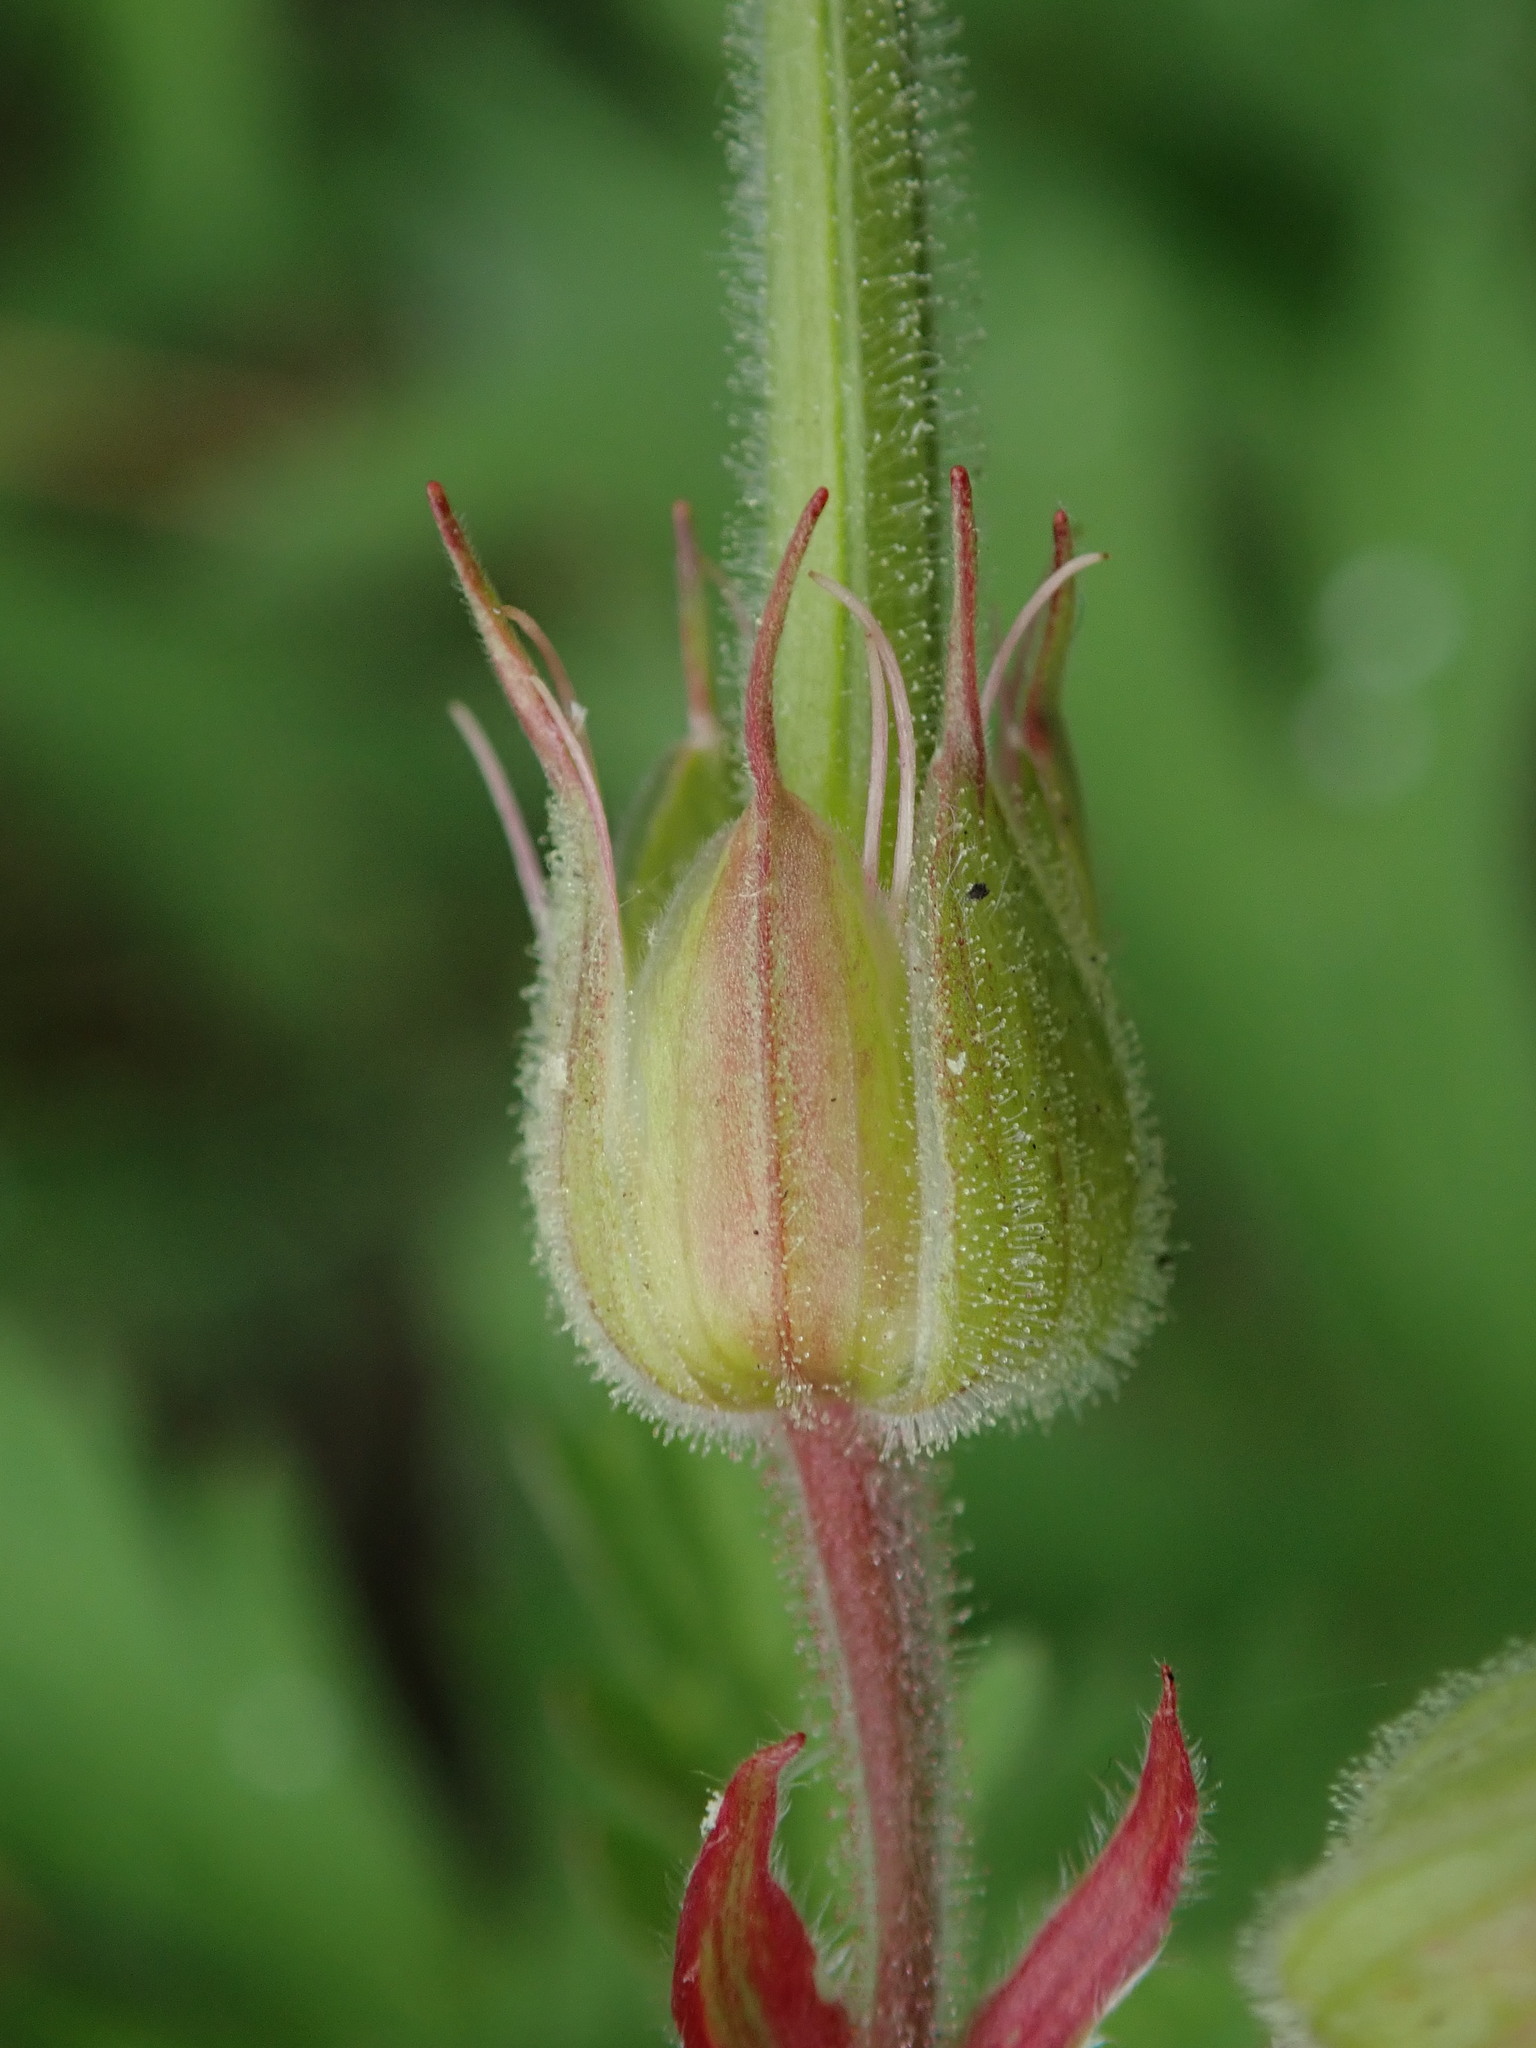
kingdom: Plantae
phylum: Tracheophyta
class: Magnoliopsida
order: Geraniales
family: Geraniaceae
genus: Geranium
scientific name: Geranium pratense
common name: Meadow crane's-bill
